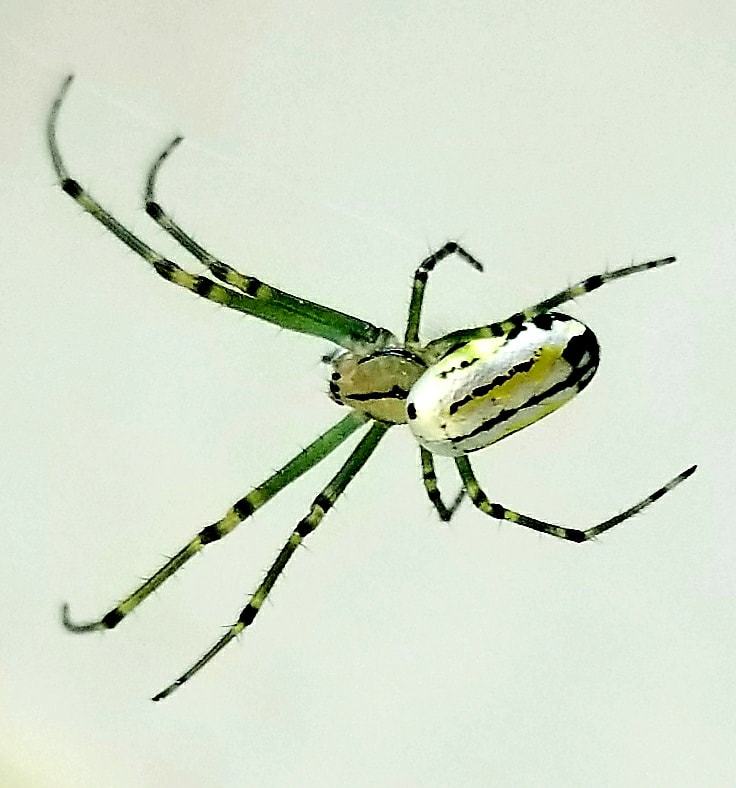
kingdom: Animalia
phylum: Arthropoda
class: Arachnida
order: Araneae
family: Tetragnathidae
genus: Leucauge
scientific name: Leucauge venusta
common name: Longjawed orb weavers
